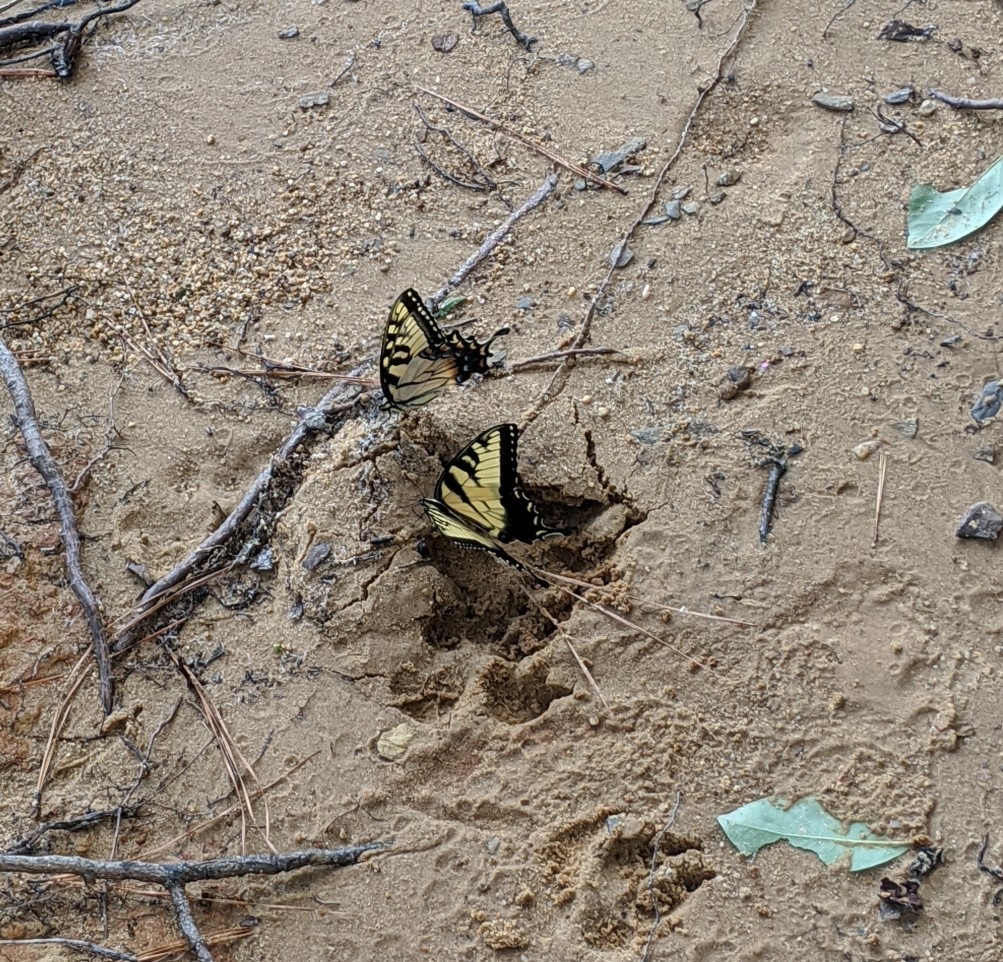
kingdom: Animalia
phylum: Arthropoda
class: Insecta
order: Lepidoptera
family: Papilionidae
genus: Papilio
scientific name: Papilio glaucus
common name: Tiger swallowtail
